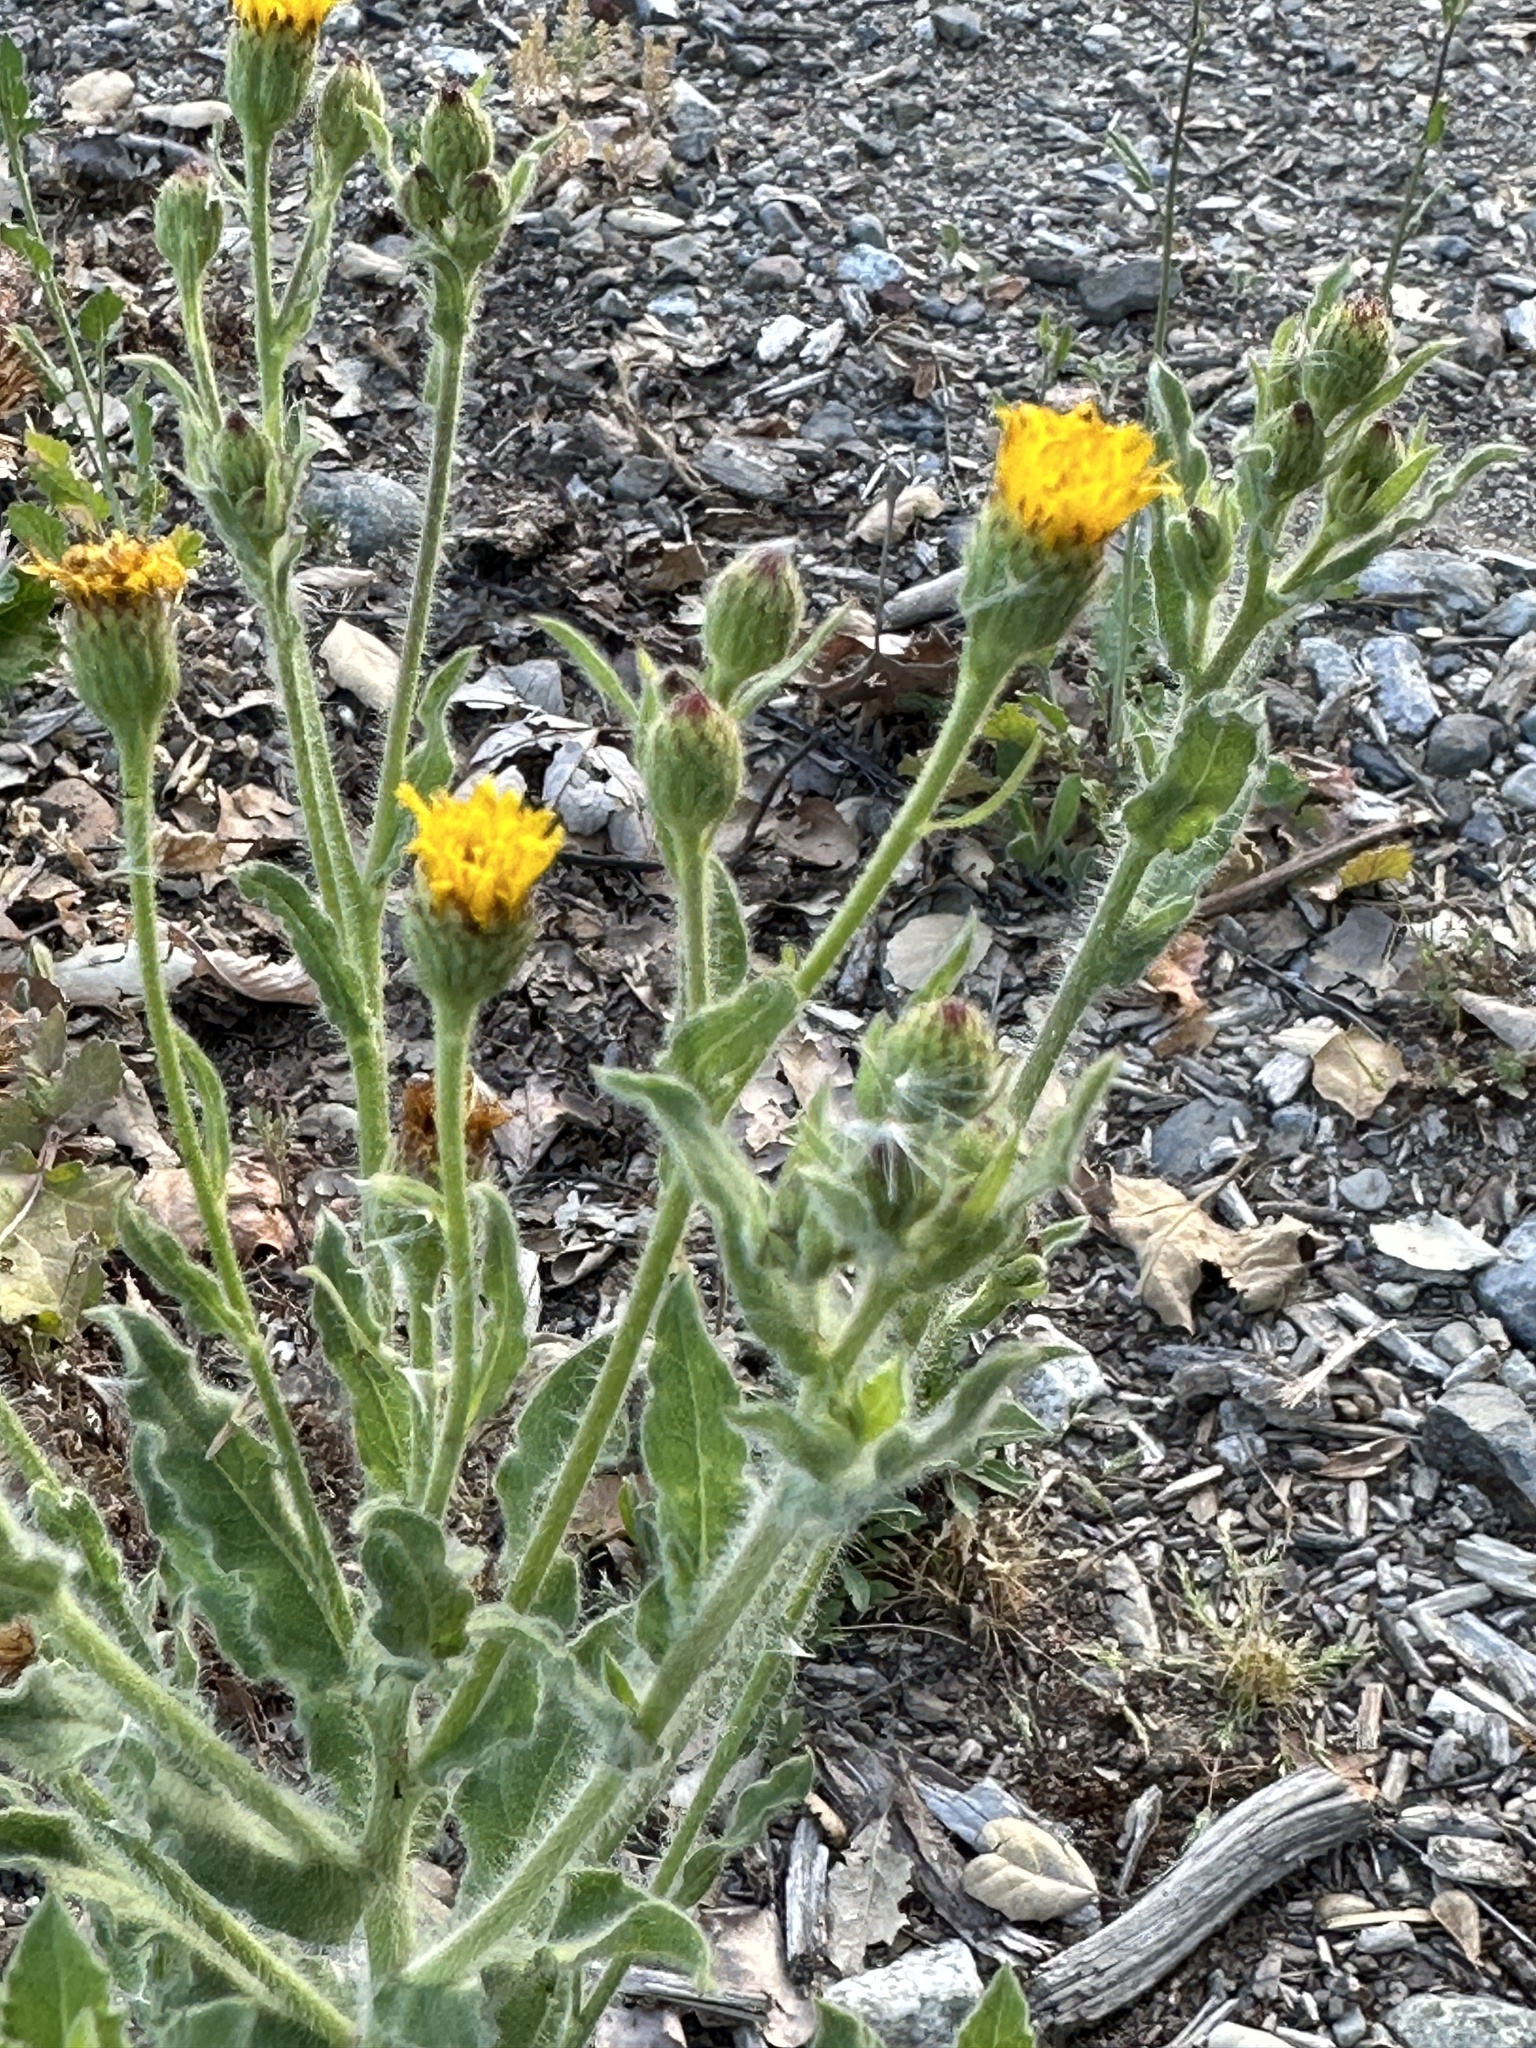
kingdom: Plantae
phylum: Tracheophyta
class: Magnoliopsida
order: Asterales
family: Asteraceae
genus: Heterotheca
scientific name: Heterotheca grandiflora
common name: Telegraphweed
